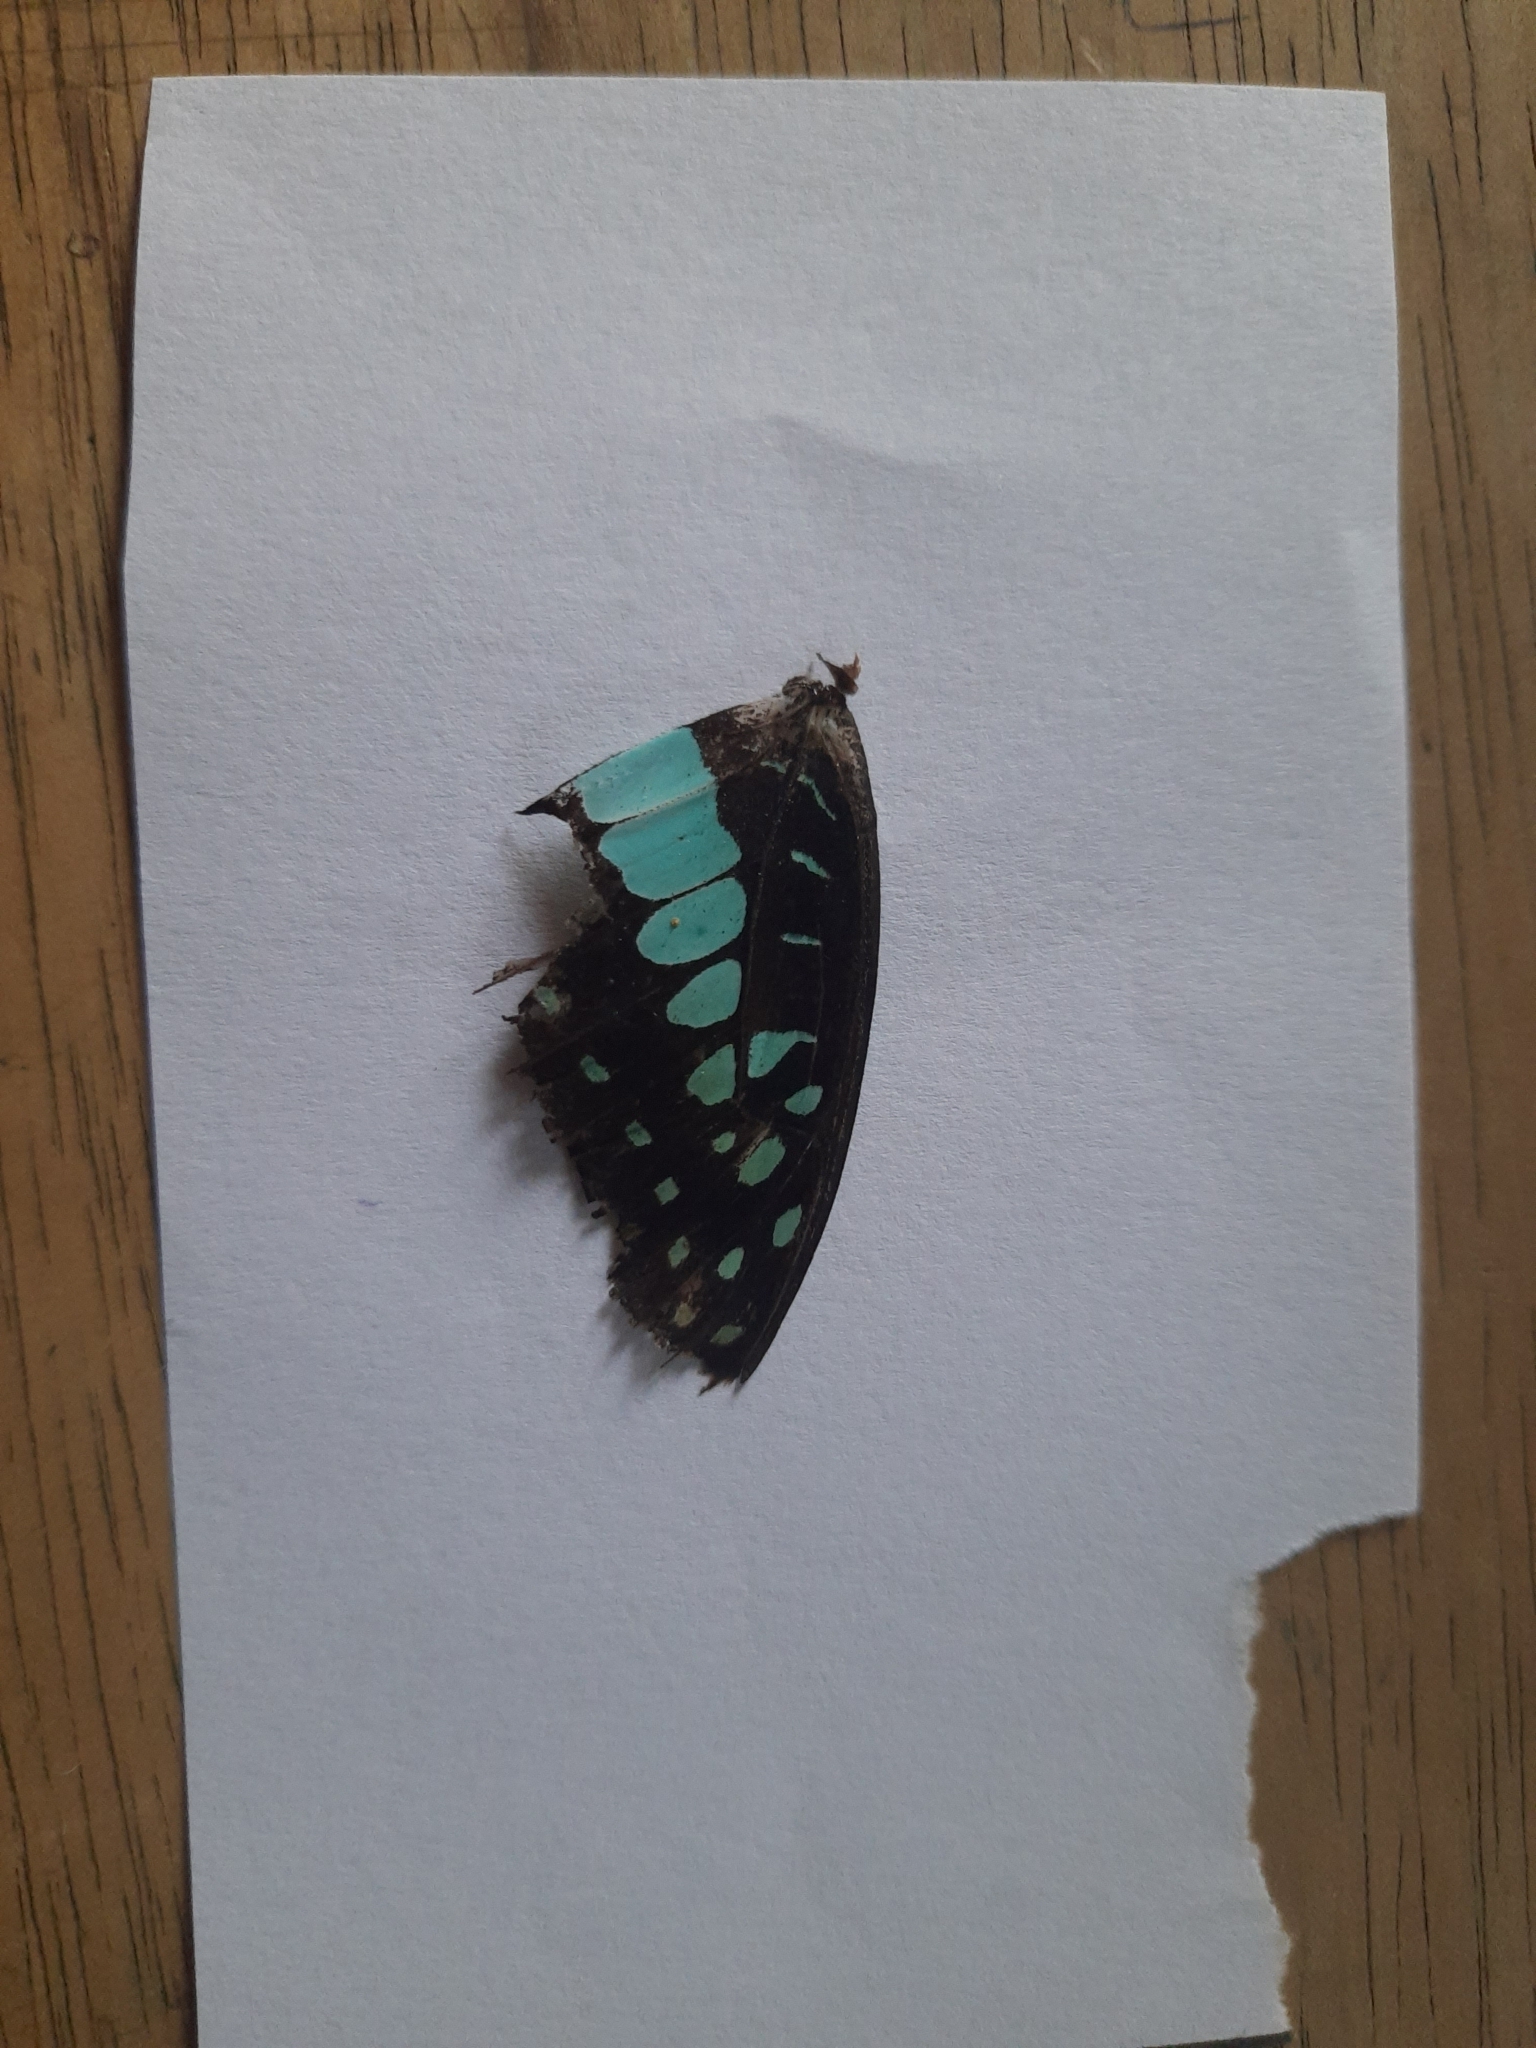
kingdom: Animalia
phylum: Arthropoda
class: Insecta
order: Lepidoptera
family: Papilionidae
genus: Graphium
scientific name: Graphium doson
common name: Common jay
